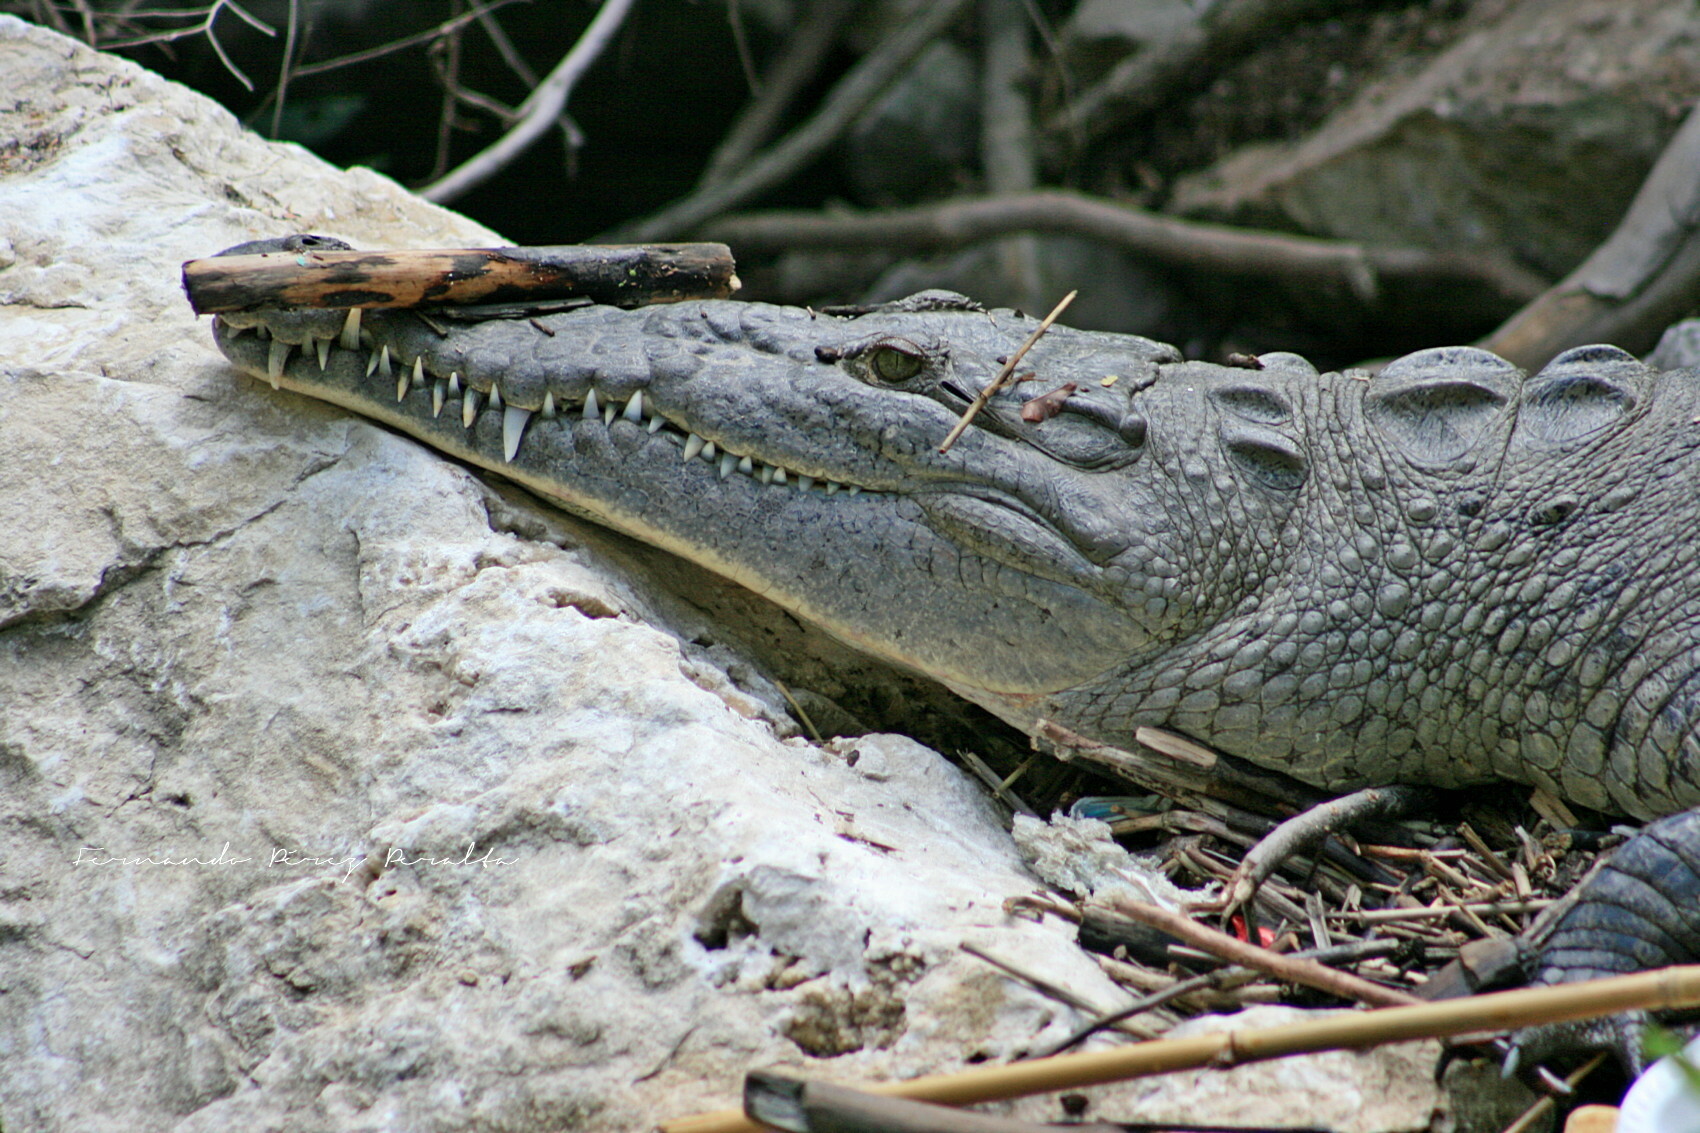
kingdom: Animalia
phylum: Chordata
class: Crocodylia
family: Crocodylidae
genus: Crocodylus
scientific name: Crocodylus acutus
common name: American crocodile
